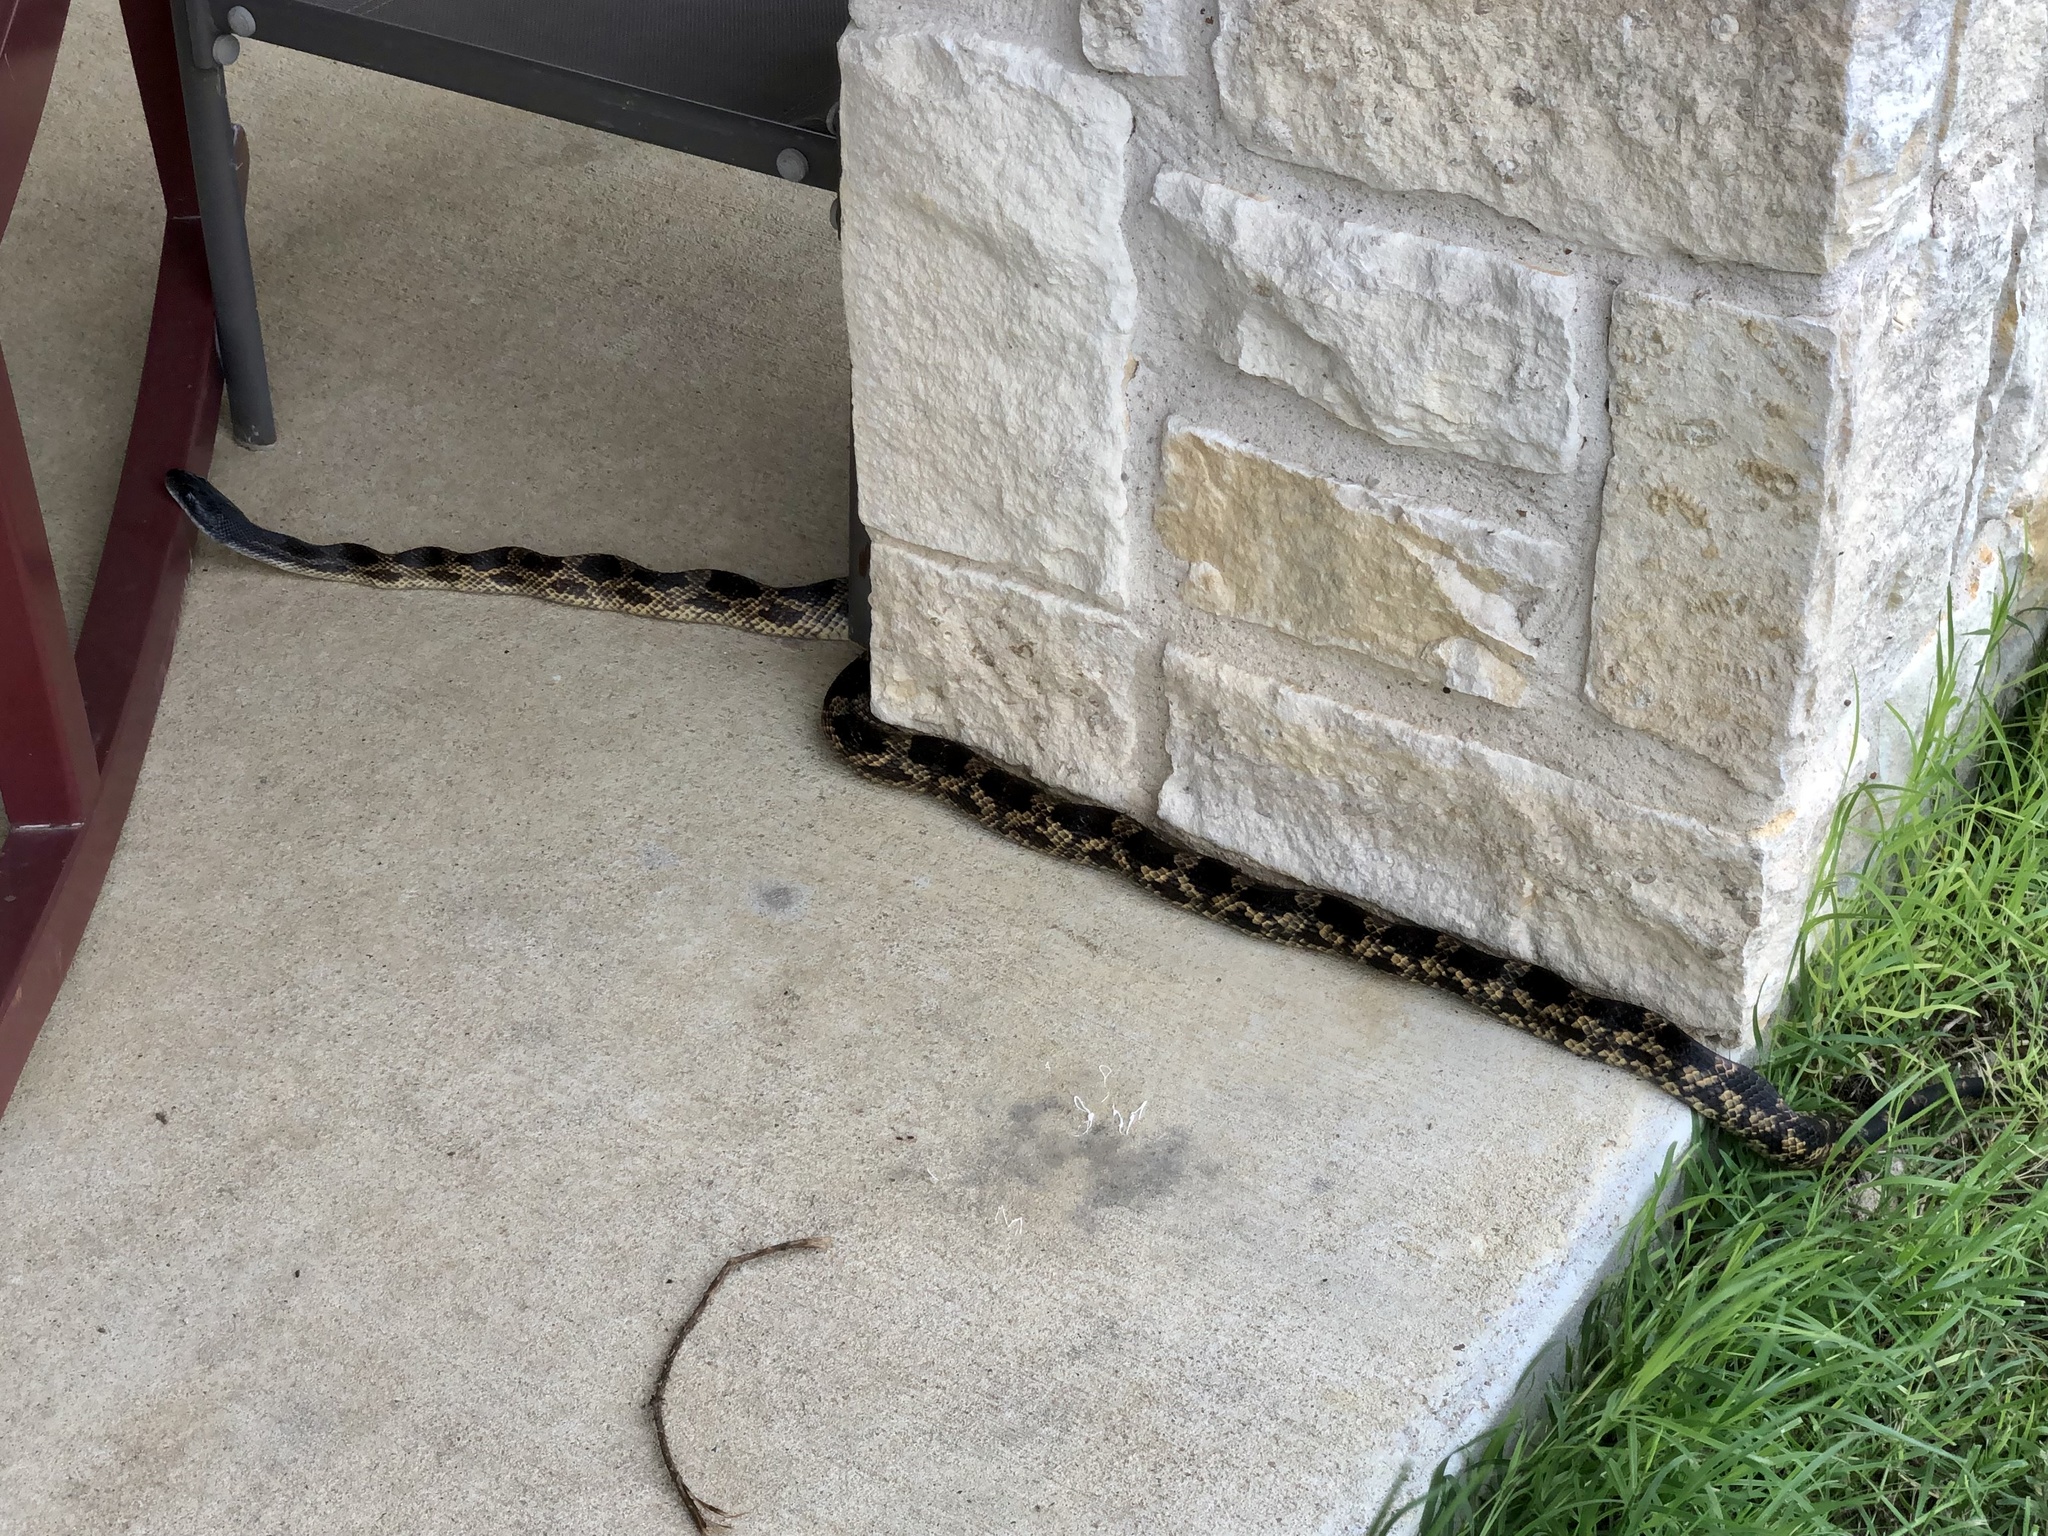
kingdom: Animalia
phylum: Chordata
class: Squamata
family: Colubridae
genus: Pantherophis
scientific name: Pantherophis obsoletus
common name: Black rat snake
